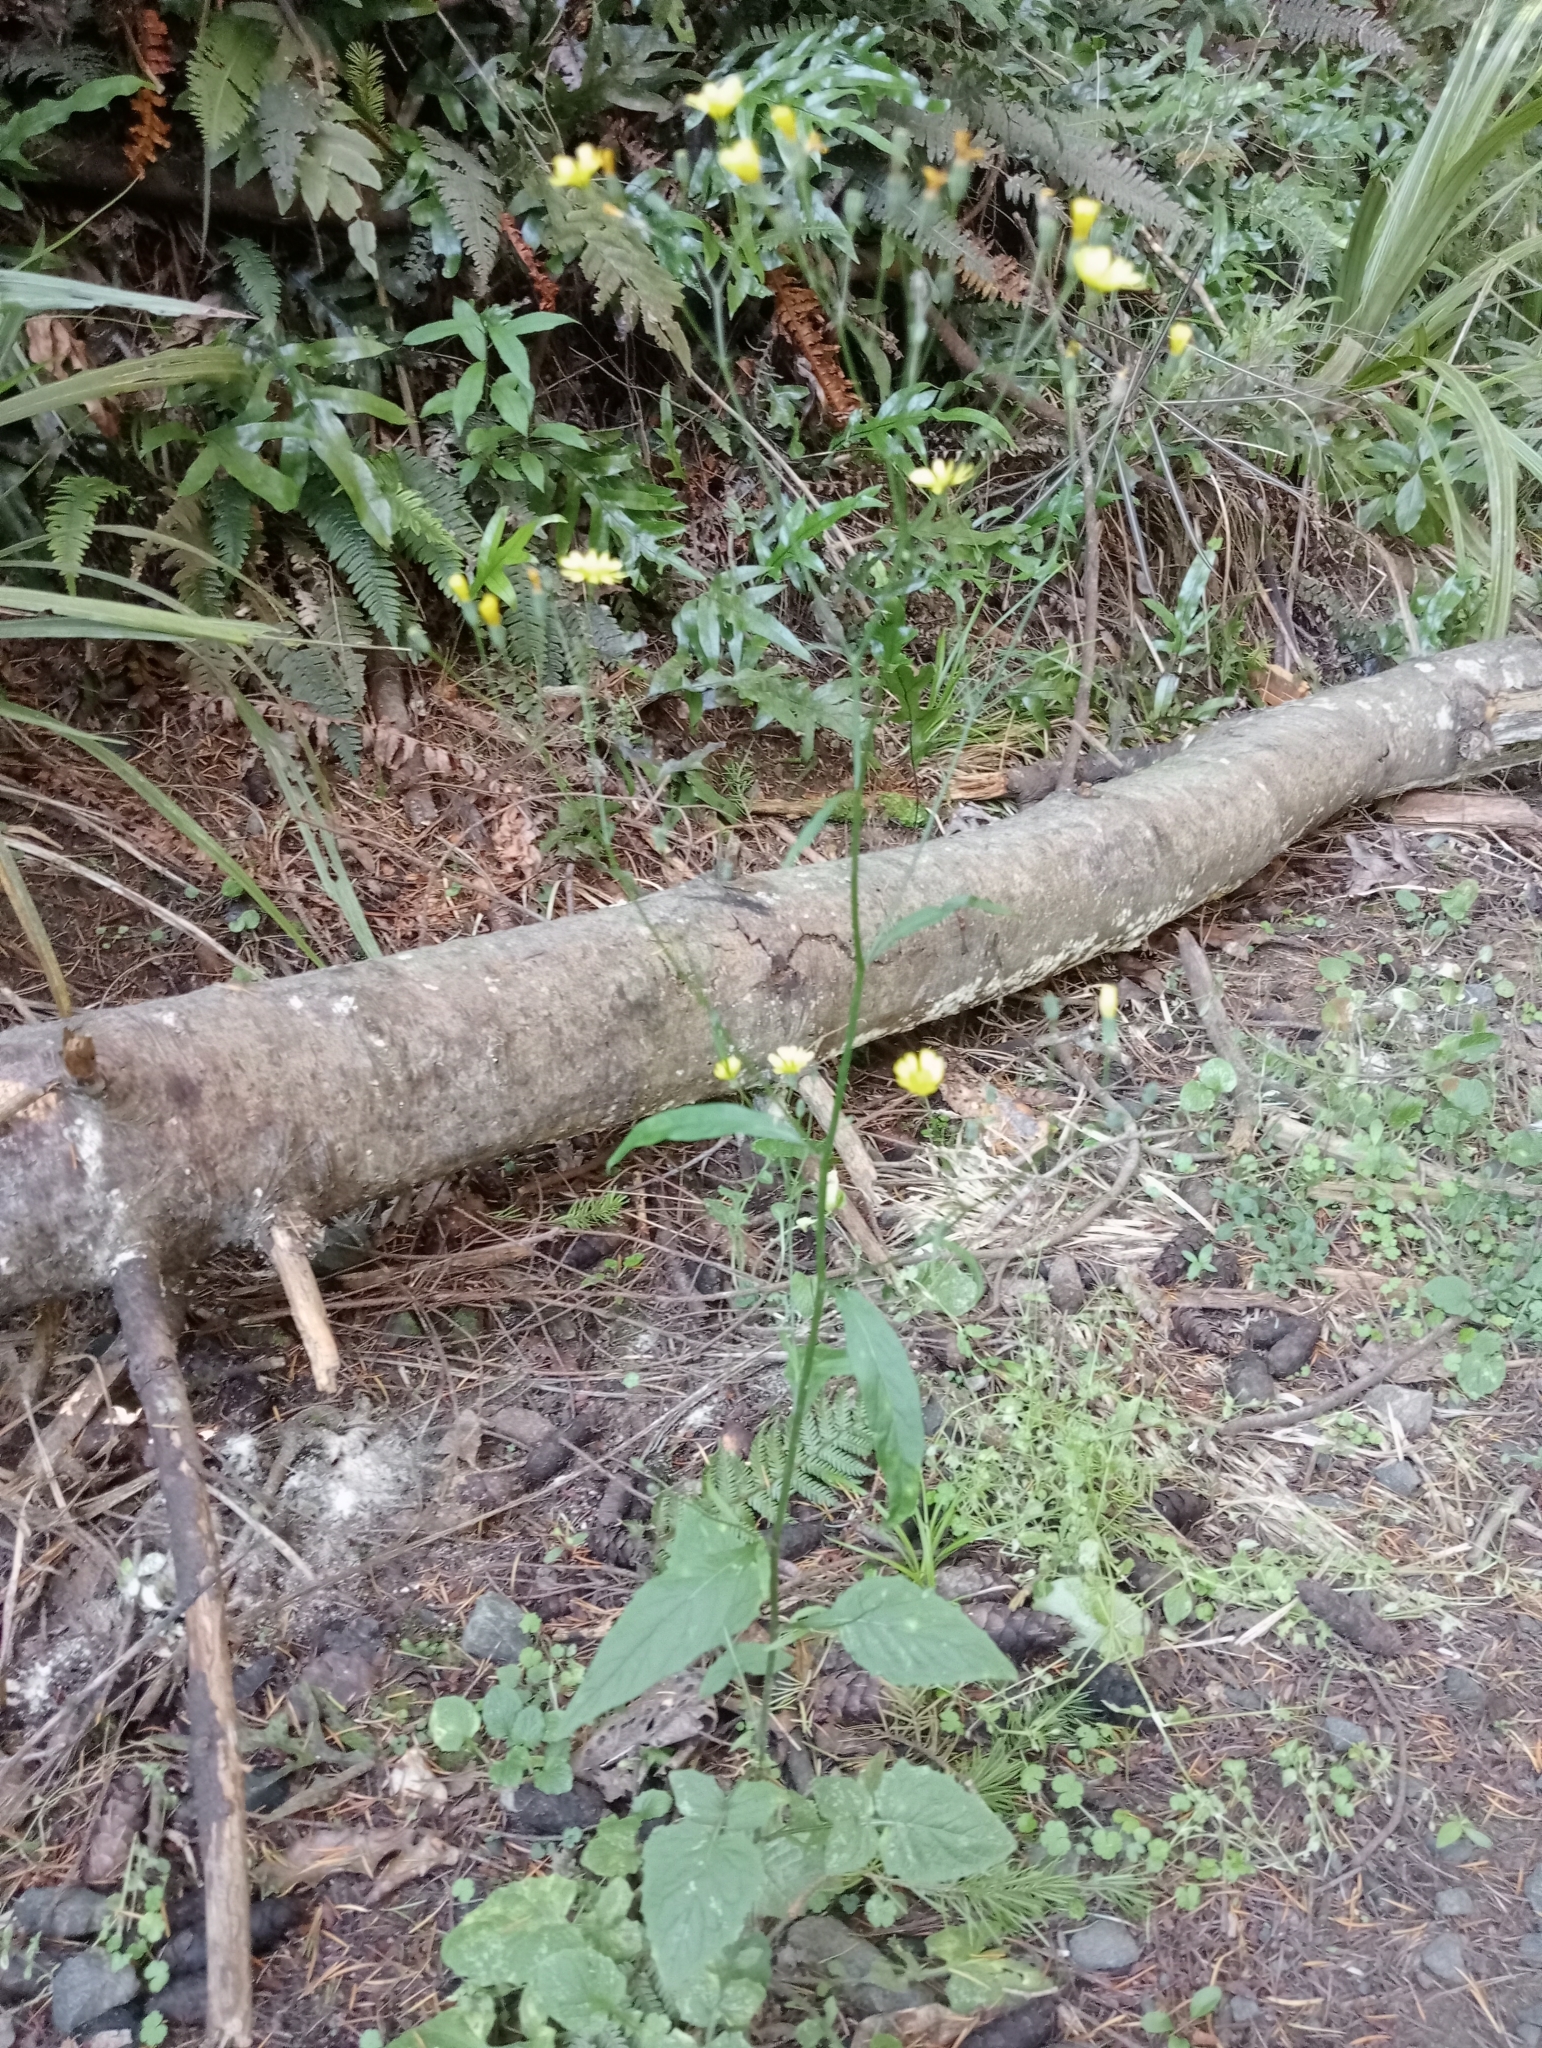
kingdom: Plantae
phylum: Tracheophyta
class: Magnoliopsida
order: Asterales
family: Asteraceae
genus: Lapsana
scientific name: Lapsana communis
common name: Nipplewort
